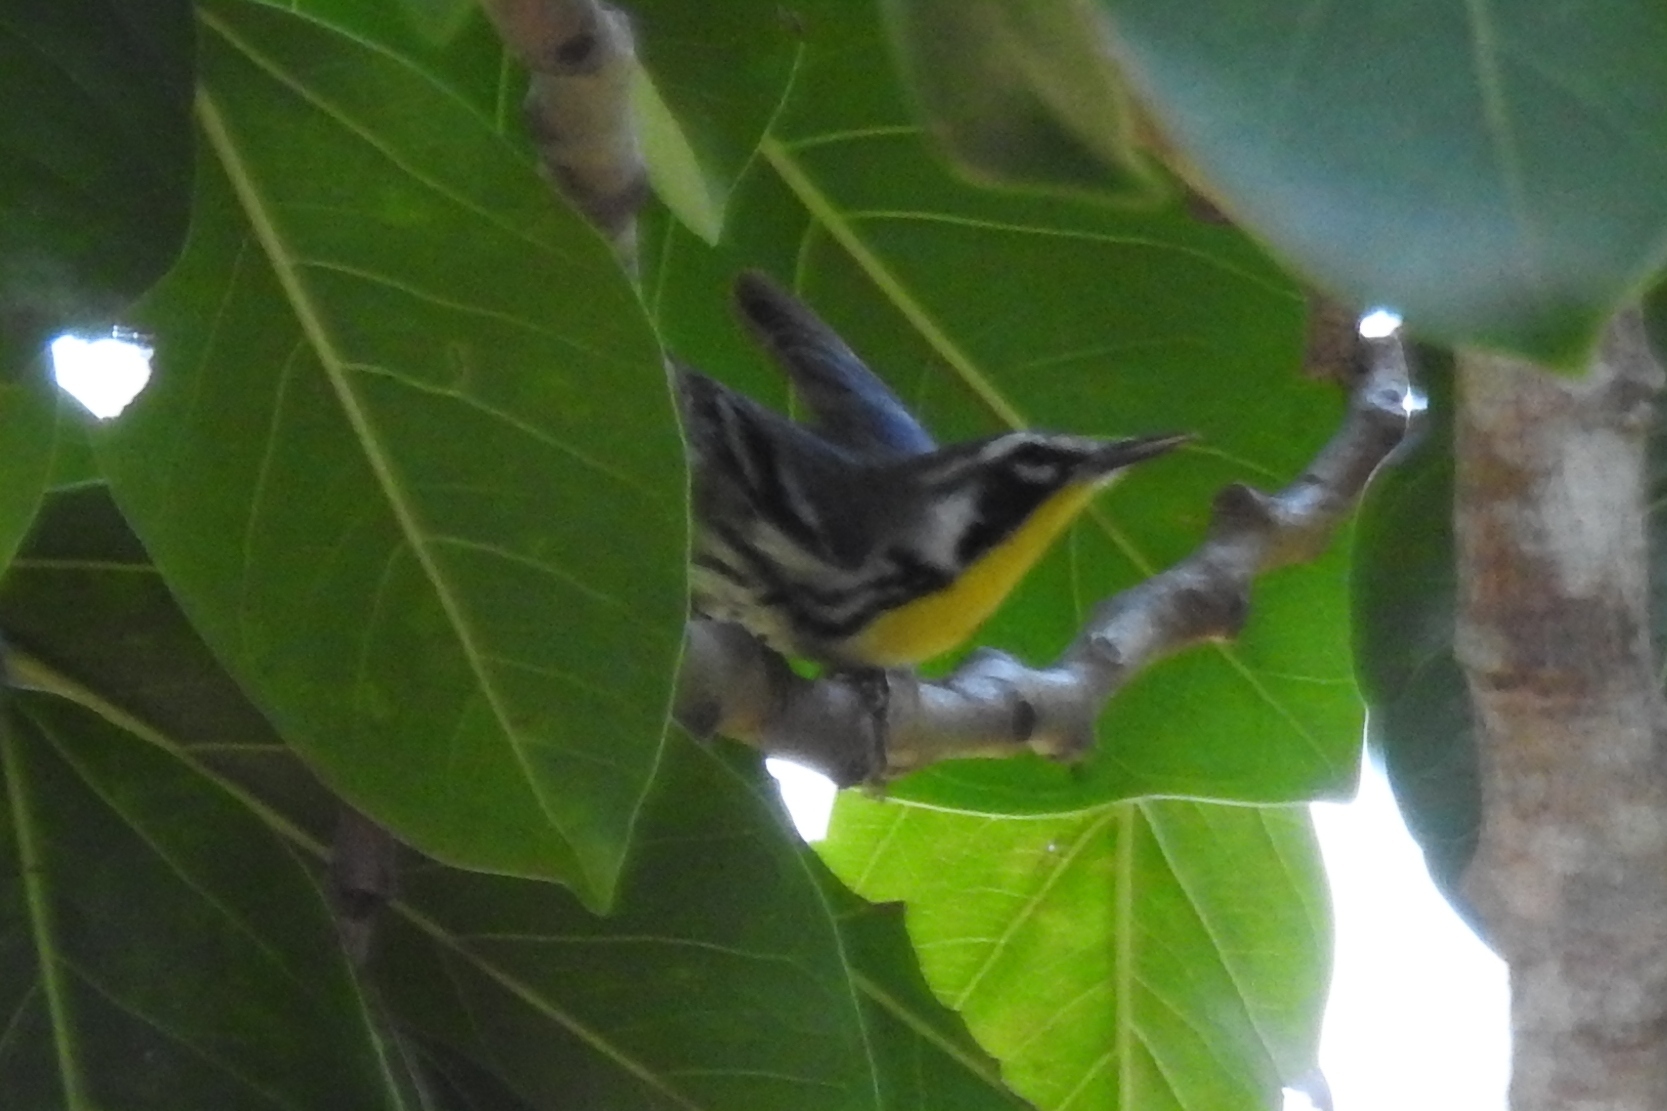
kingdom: Animalia
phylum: Chordata
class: Aves
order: Passeriformes
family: Parulidae
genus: Setophaga
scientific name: Setophaga dominica
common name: Yellow-throated warbler
